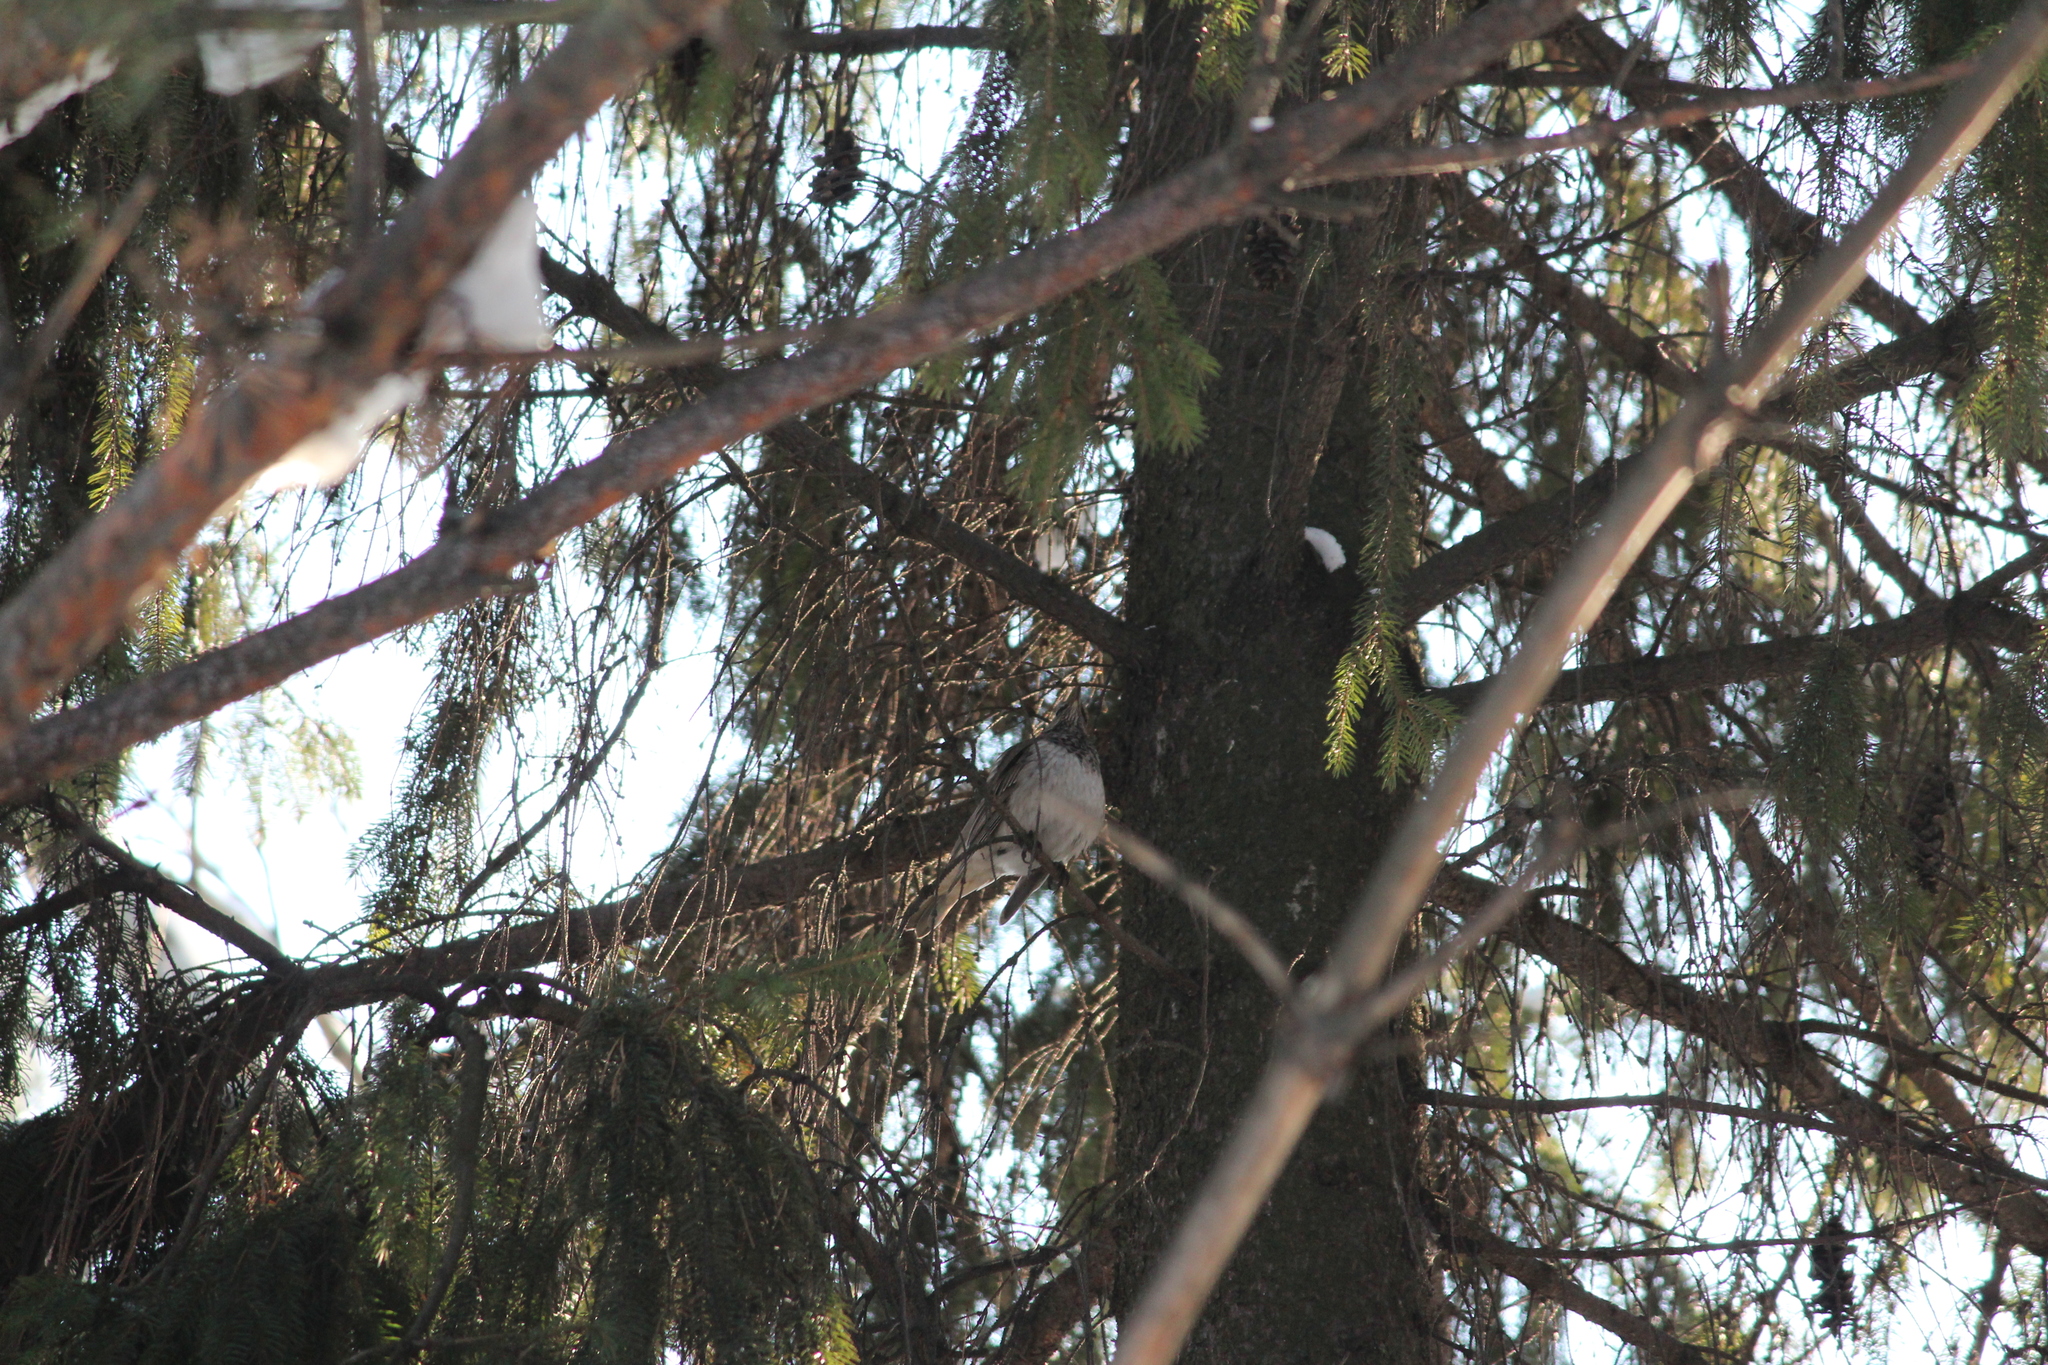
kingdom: Animalia
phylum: Chordata
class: Aves
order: Passeriformes
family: Turdidae
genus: Turdus
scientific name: Turdus atrogularis
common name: Black-throated thrush
